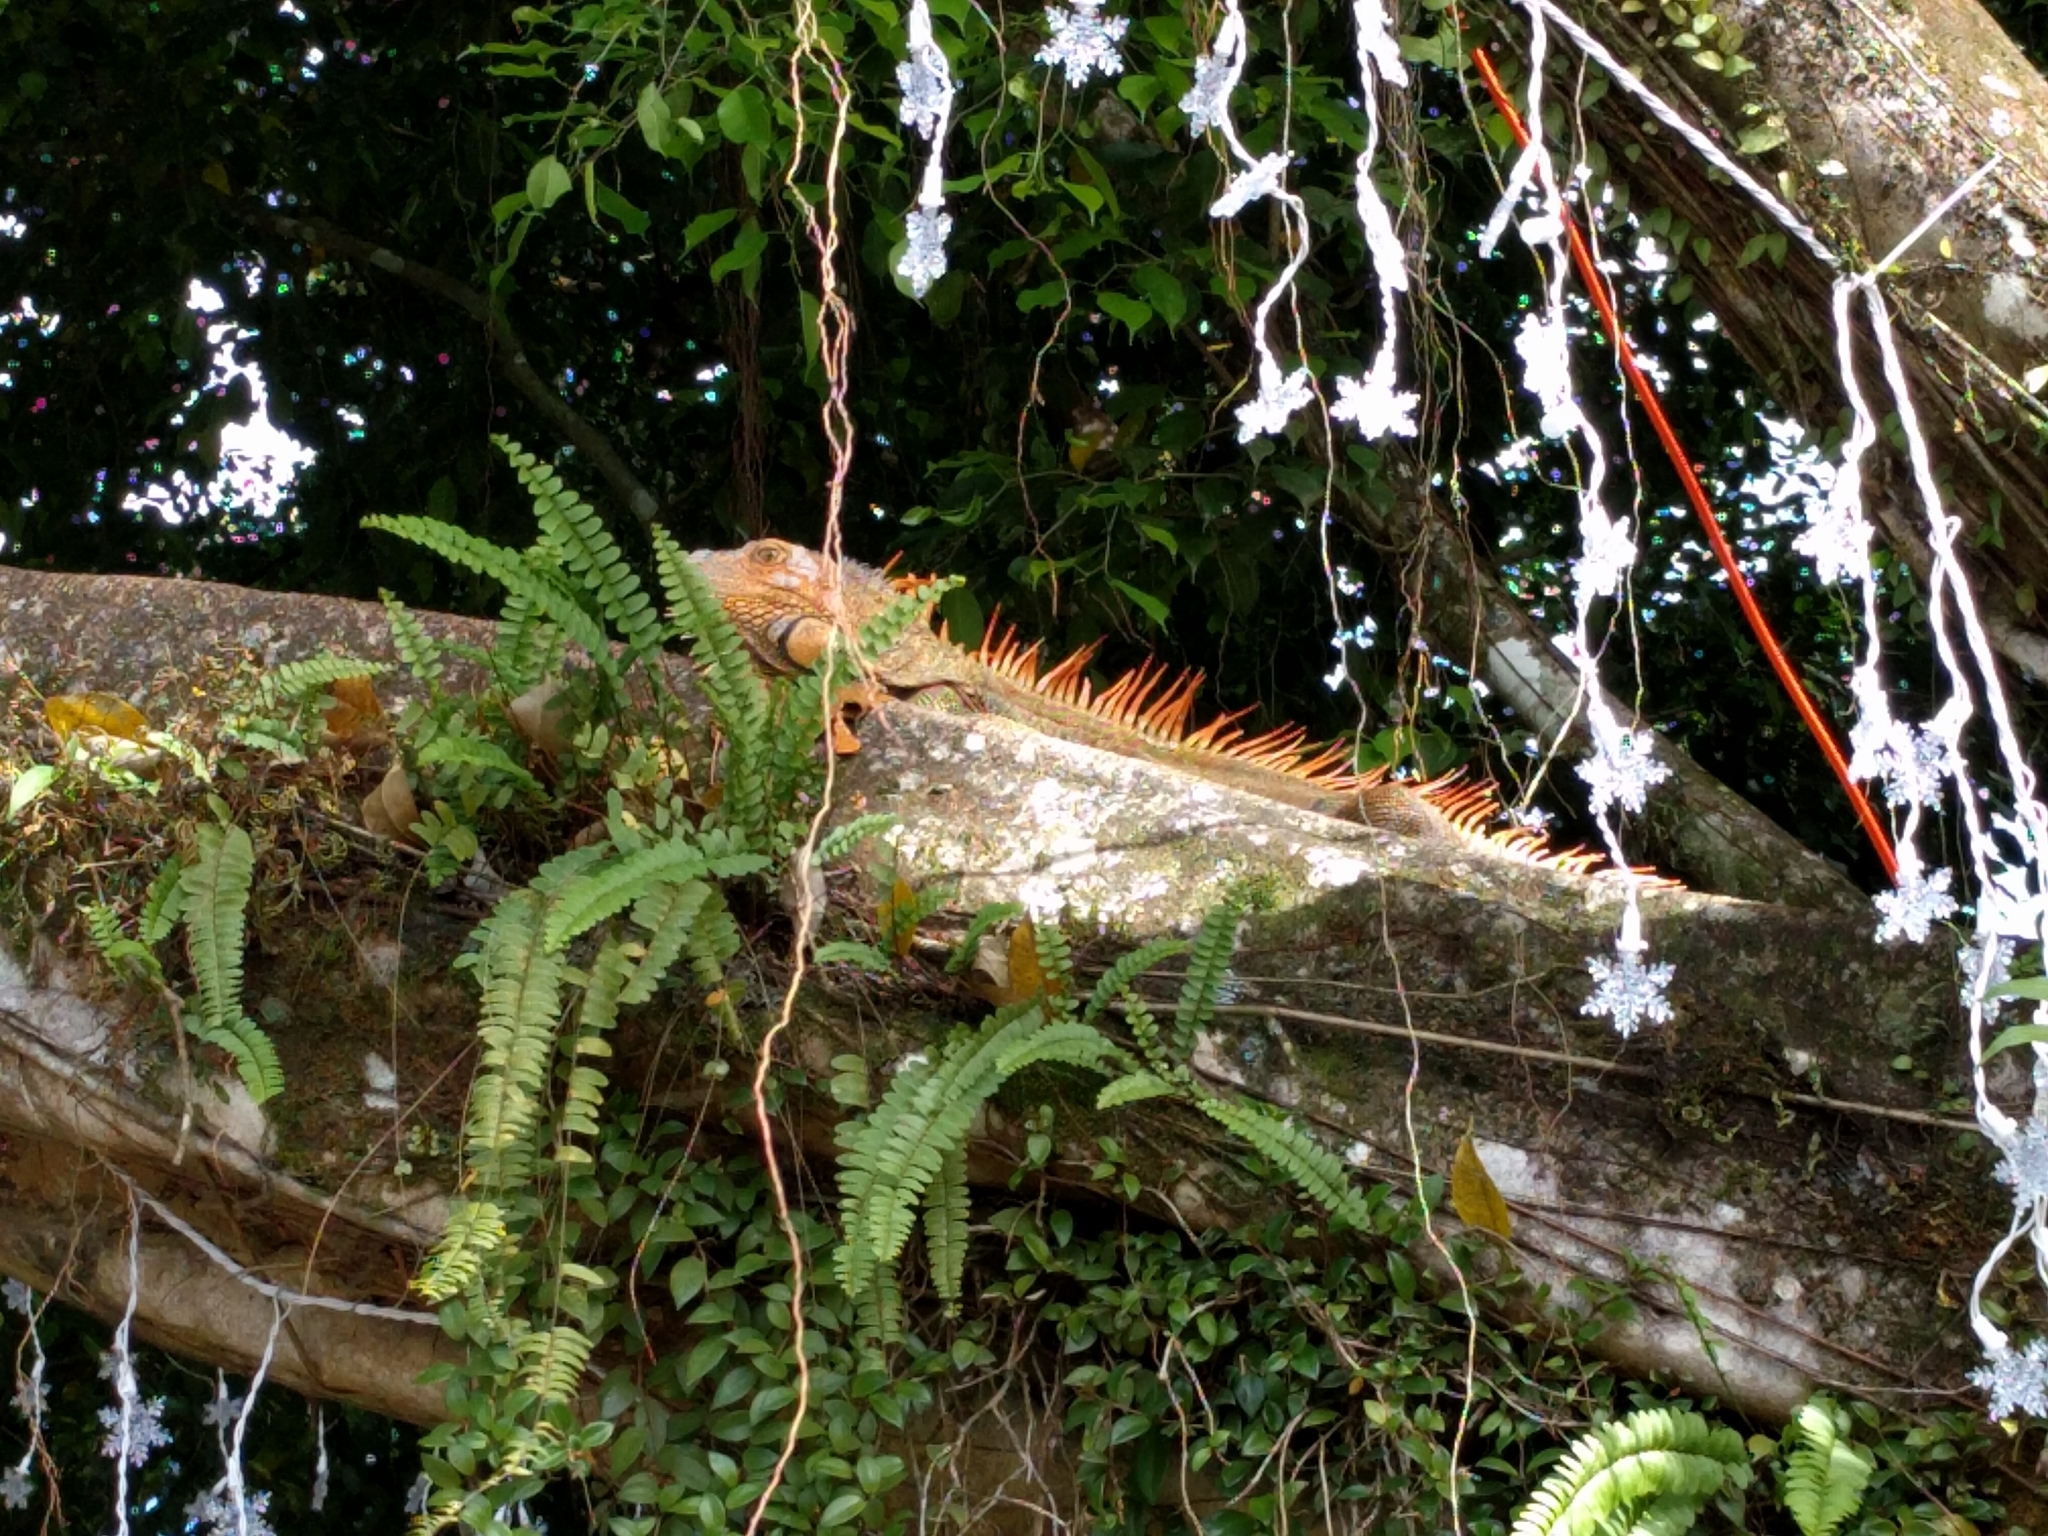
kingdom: Animalia
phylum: Chordata
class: Squamata
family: Iguanidae
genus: Iguana
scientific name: Iguana iguana
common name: Green iguana
